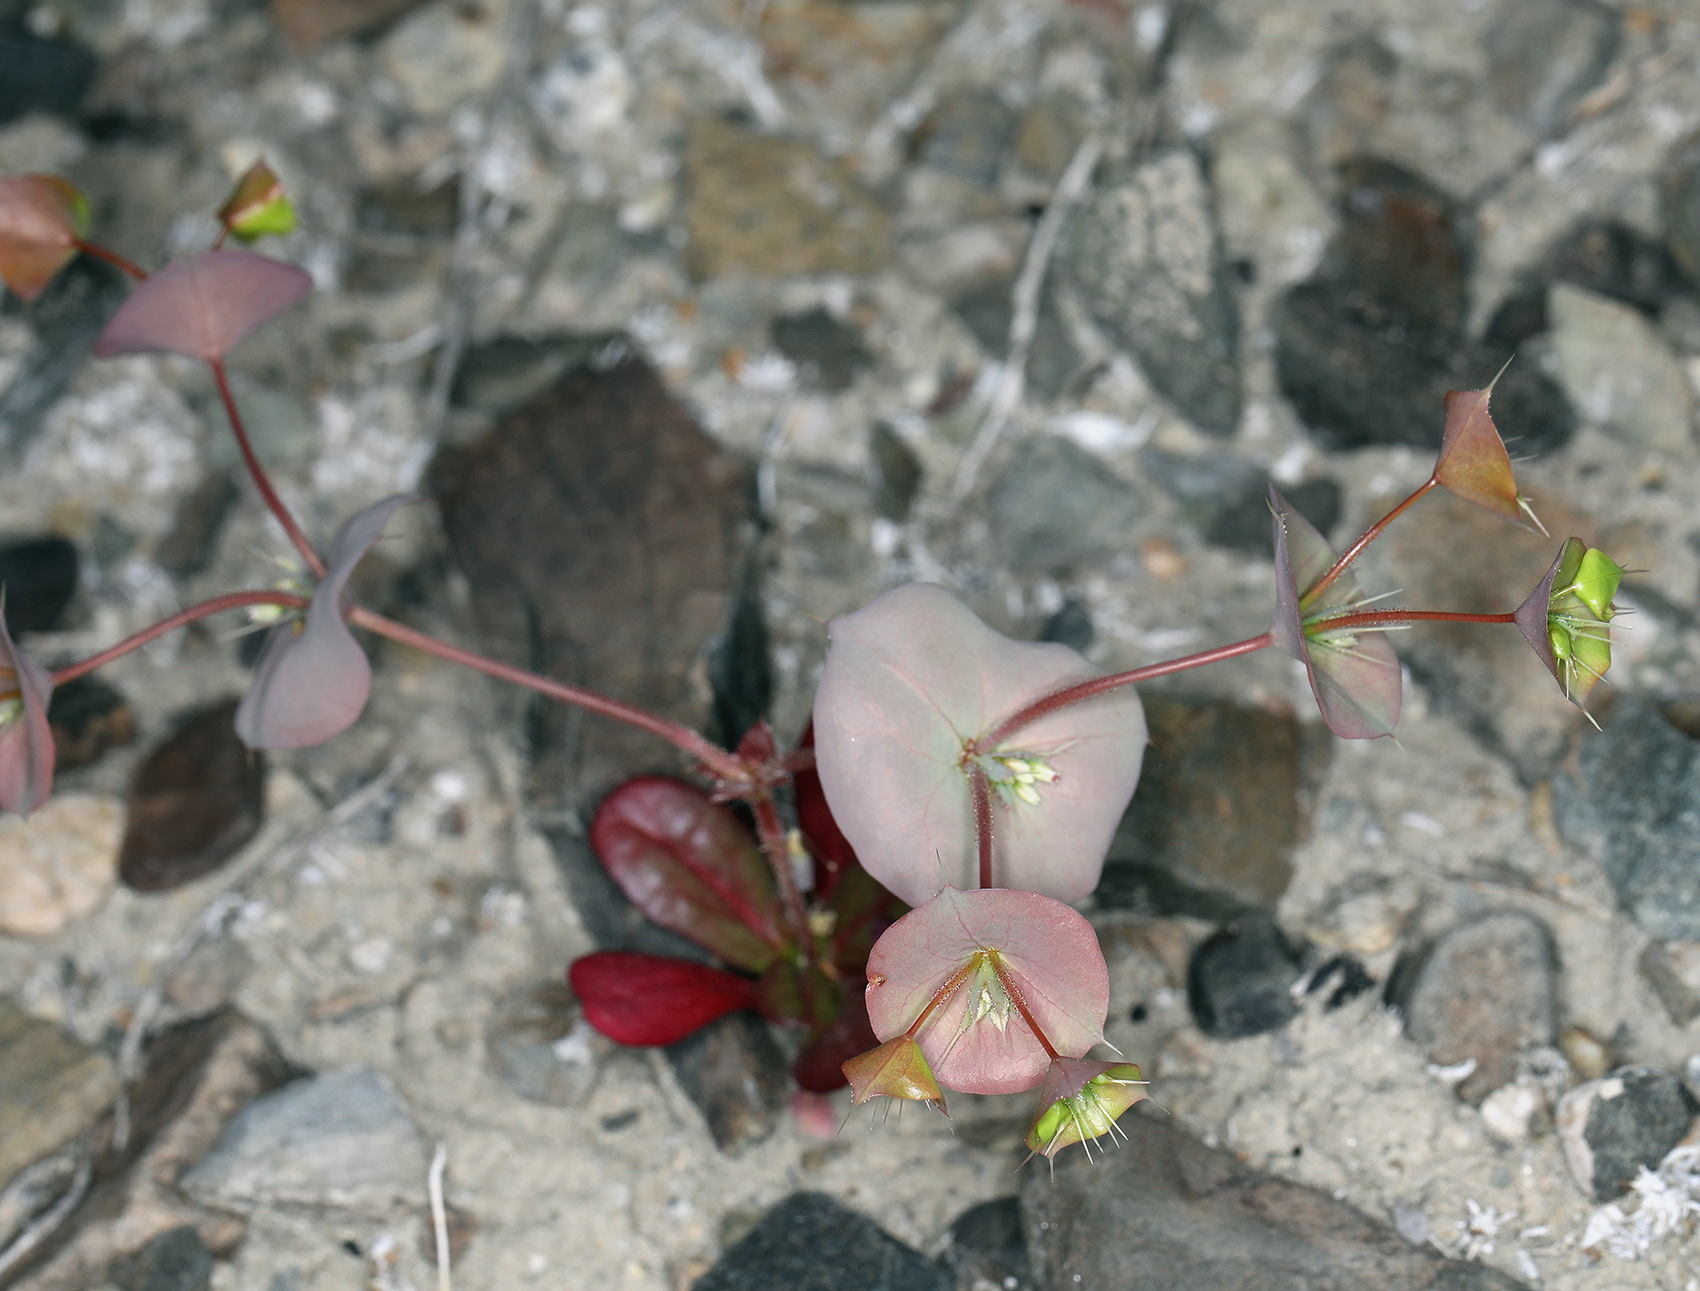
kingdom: Plantae
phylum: Tracheophyta
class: Magnoliopsida
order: Caryophyllales
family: Polygonaceae
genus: Oxytheca
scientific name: Oxytheca perfoliata
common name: Round-leaf puncturebract
